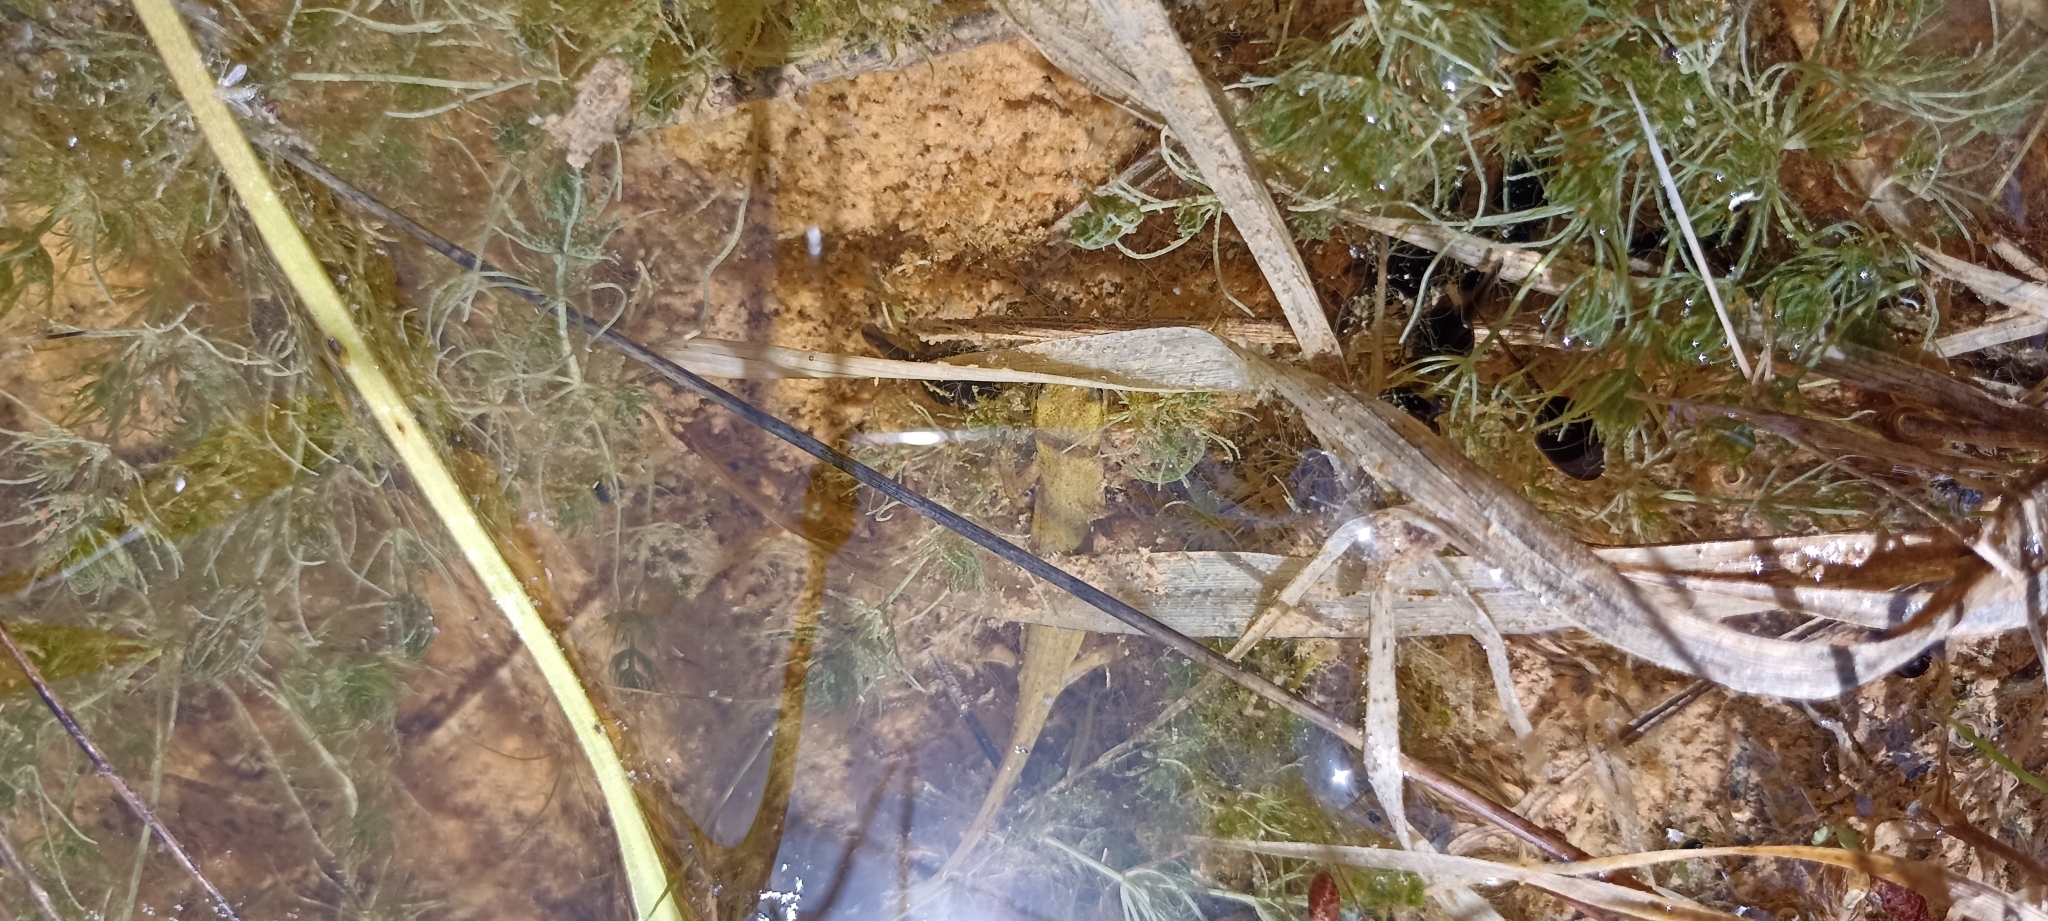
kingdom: Animalia
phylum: Chordata
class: Amphibia
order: Caudata
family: Salamandridae
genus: Lissotriton
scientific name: Lissotriton helveticus
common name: Palmate newt
